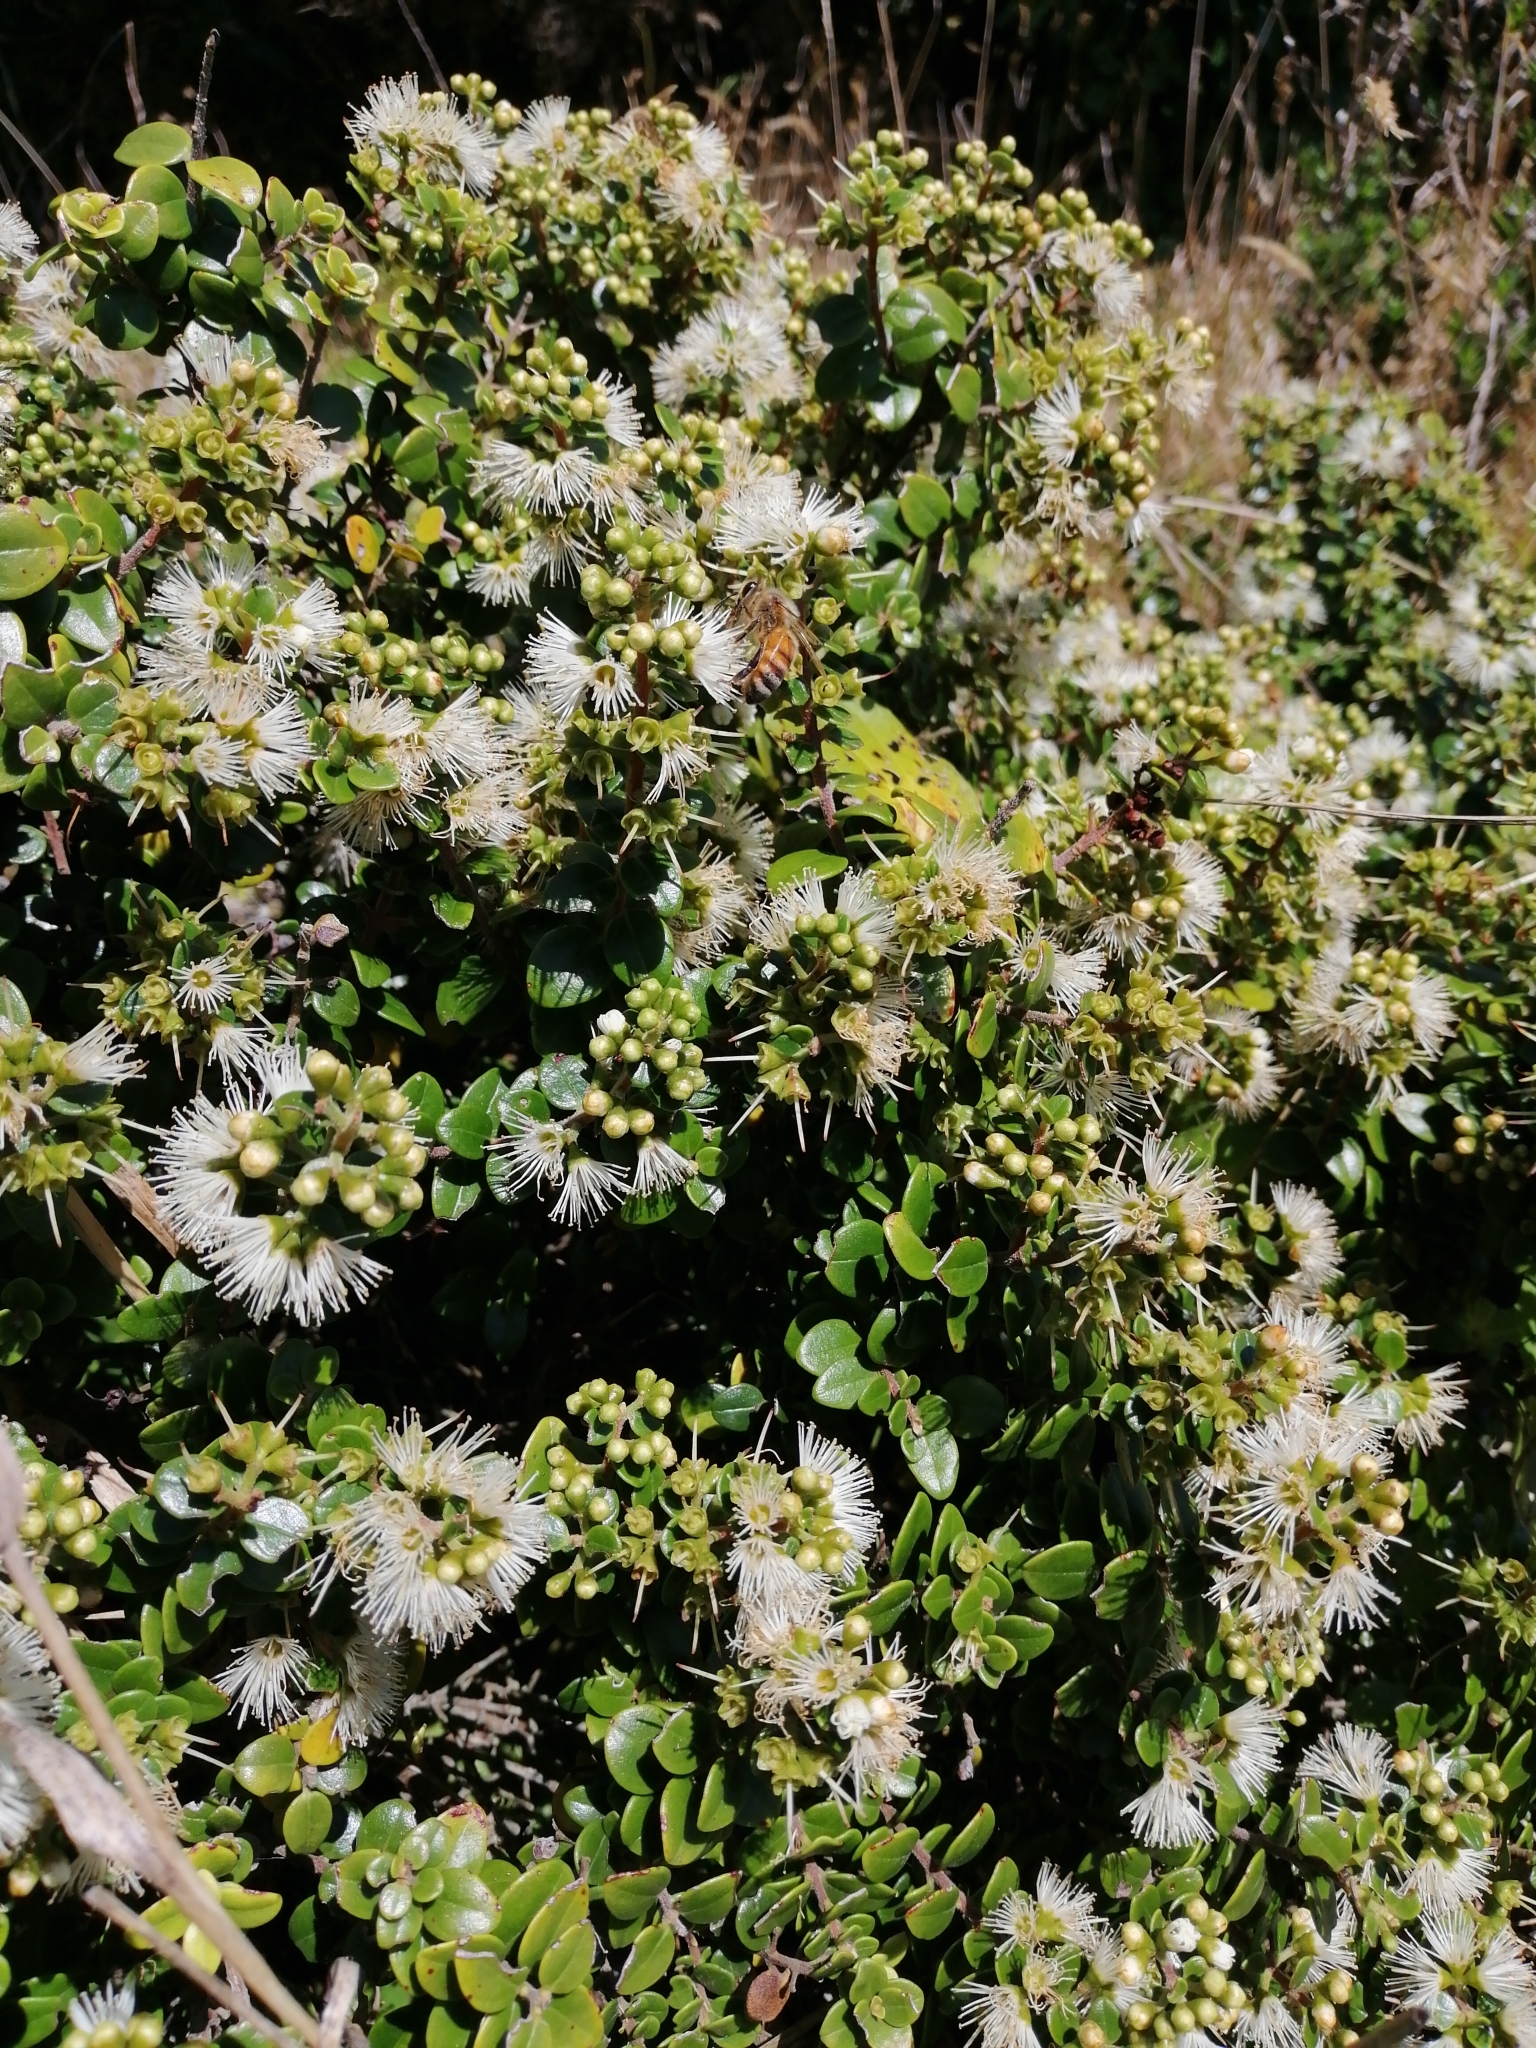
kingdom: Plantae
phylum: Tracheophyta
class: Magnoliopsida
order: Myrtales
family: Myrtaceae
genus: Metrosideros
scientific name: Metrosideros perforata
